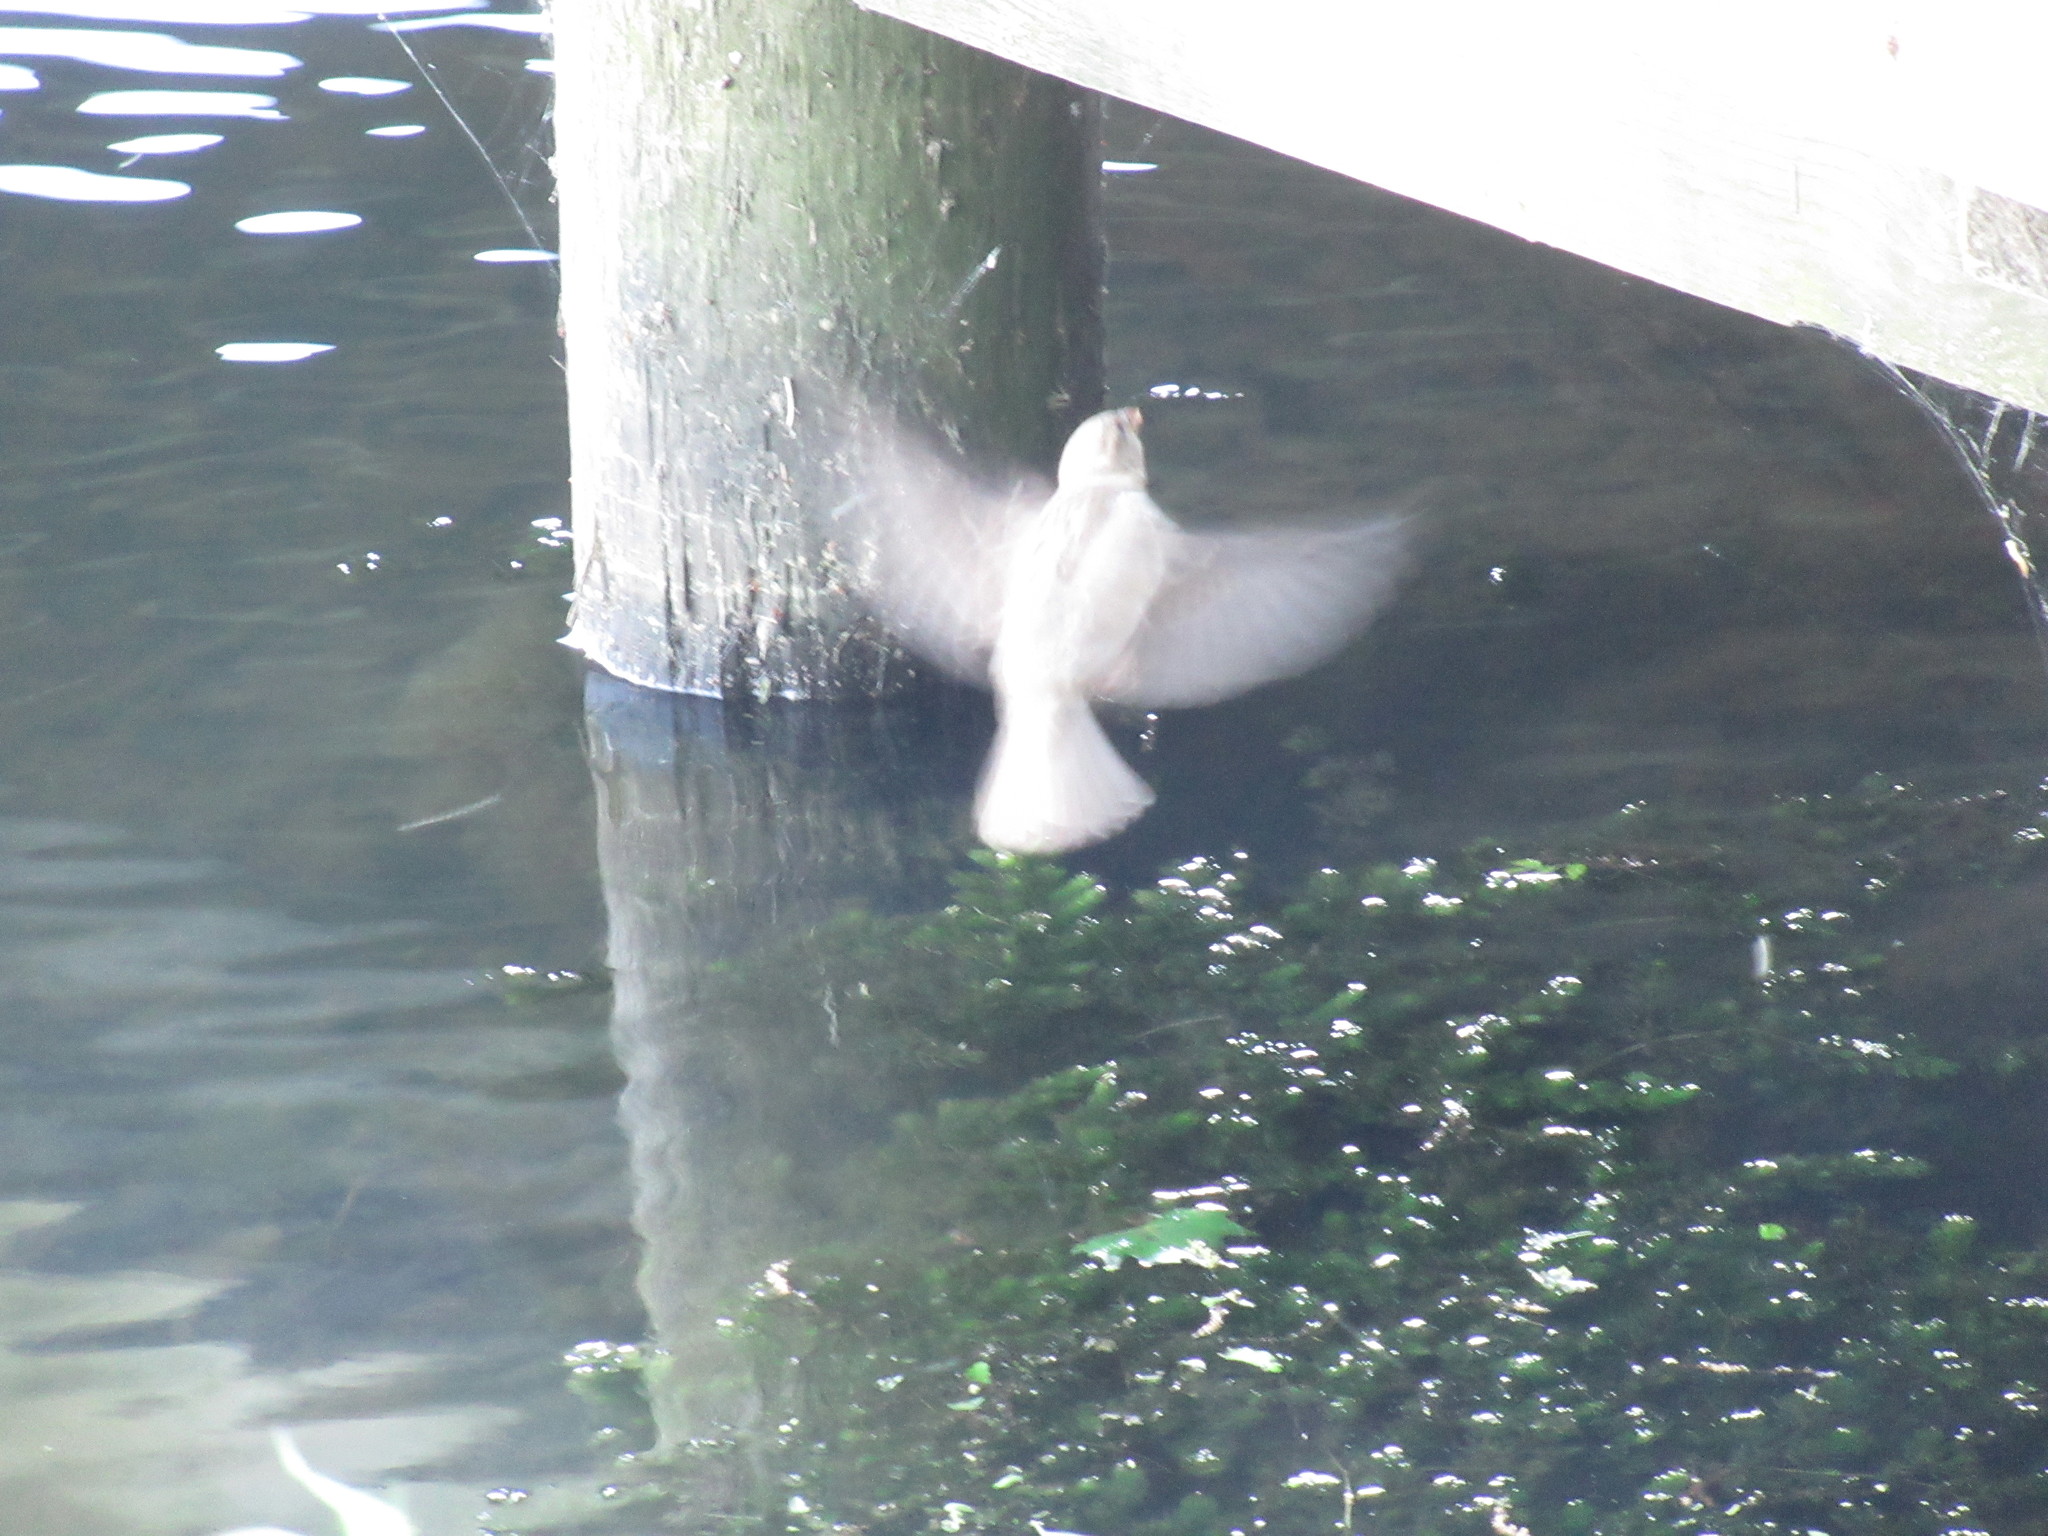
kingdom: Animalia
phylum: Chordata
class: Aves
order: Passeriformes
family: Passeridae
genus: Passer
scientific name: Passer domesticus
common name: House sparrow
